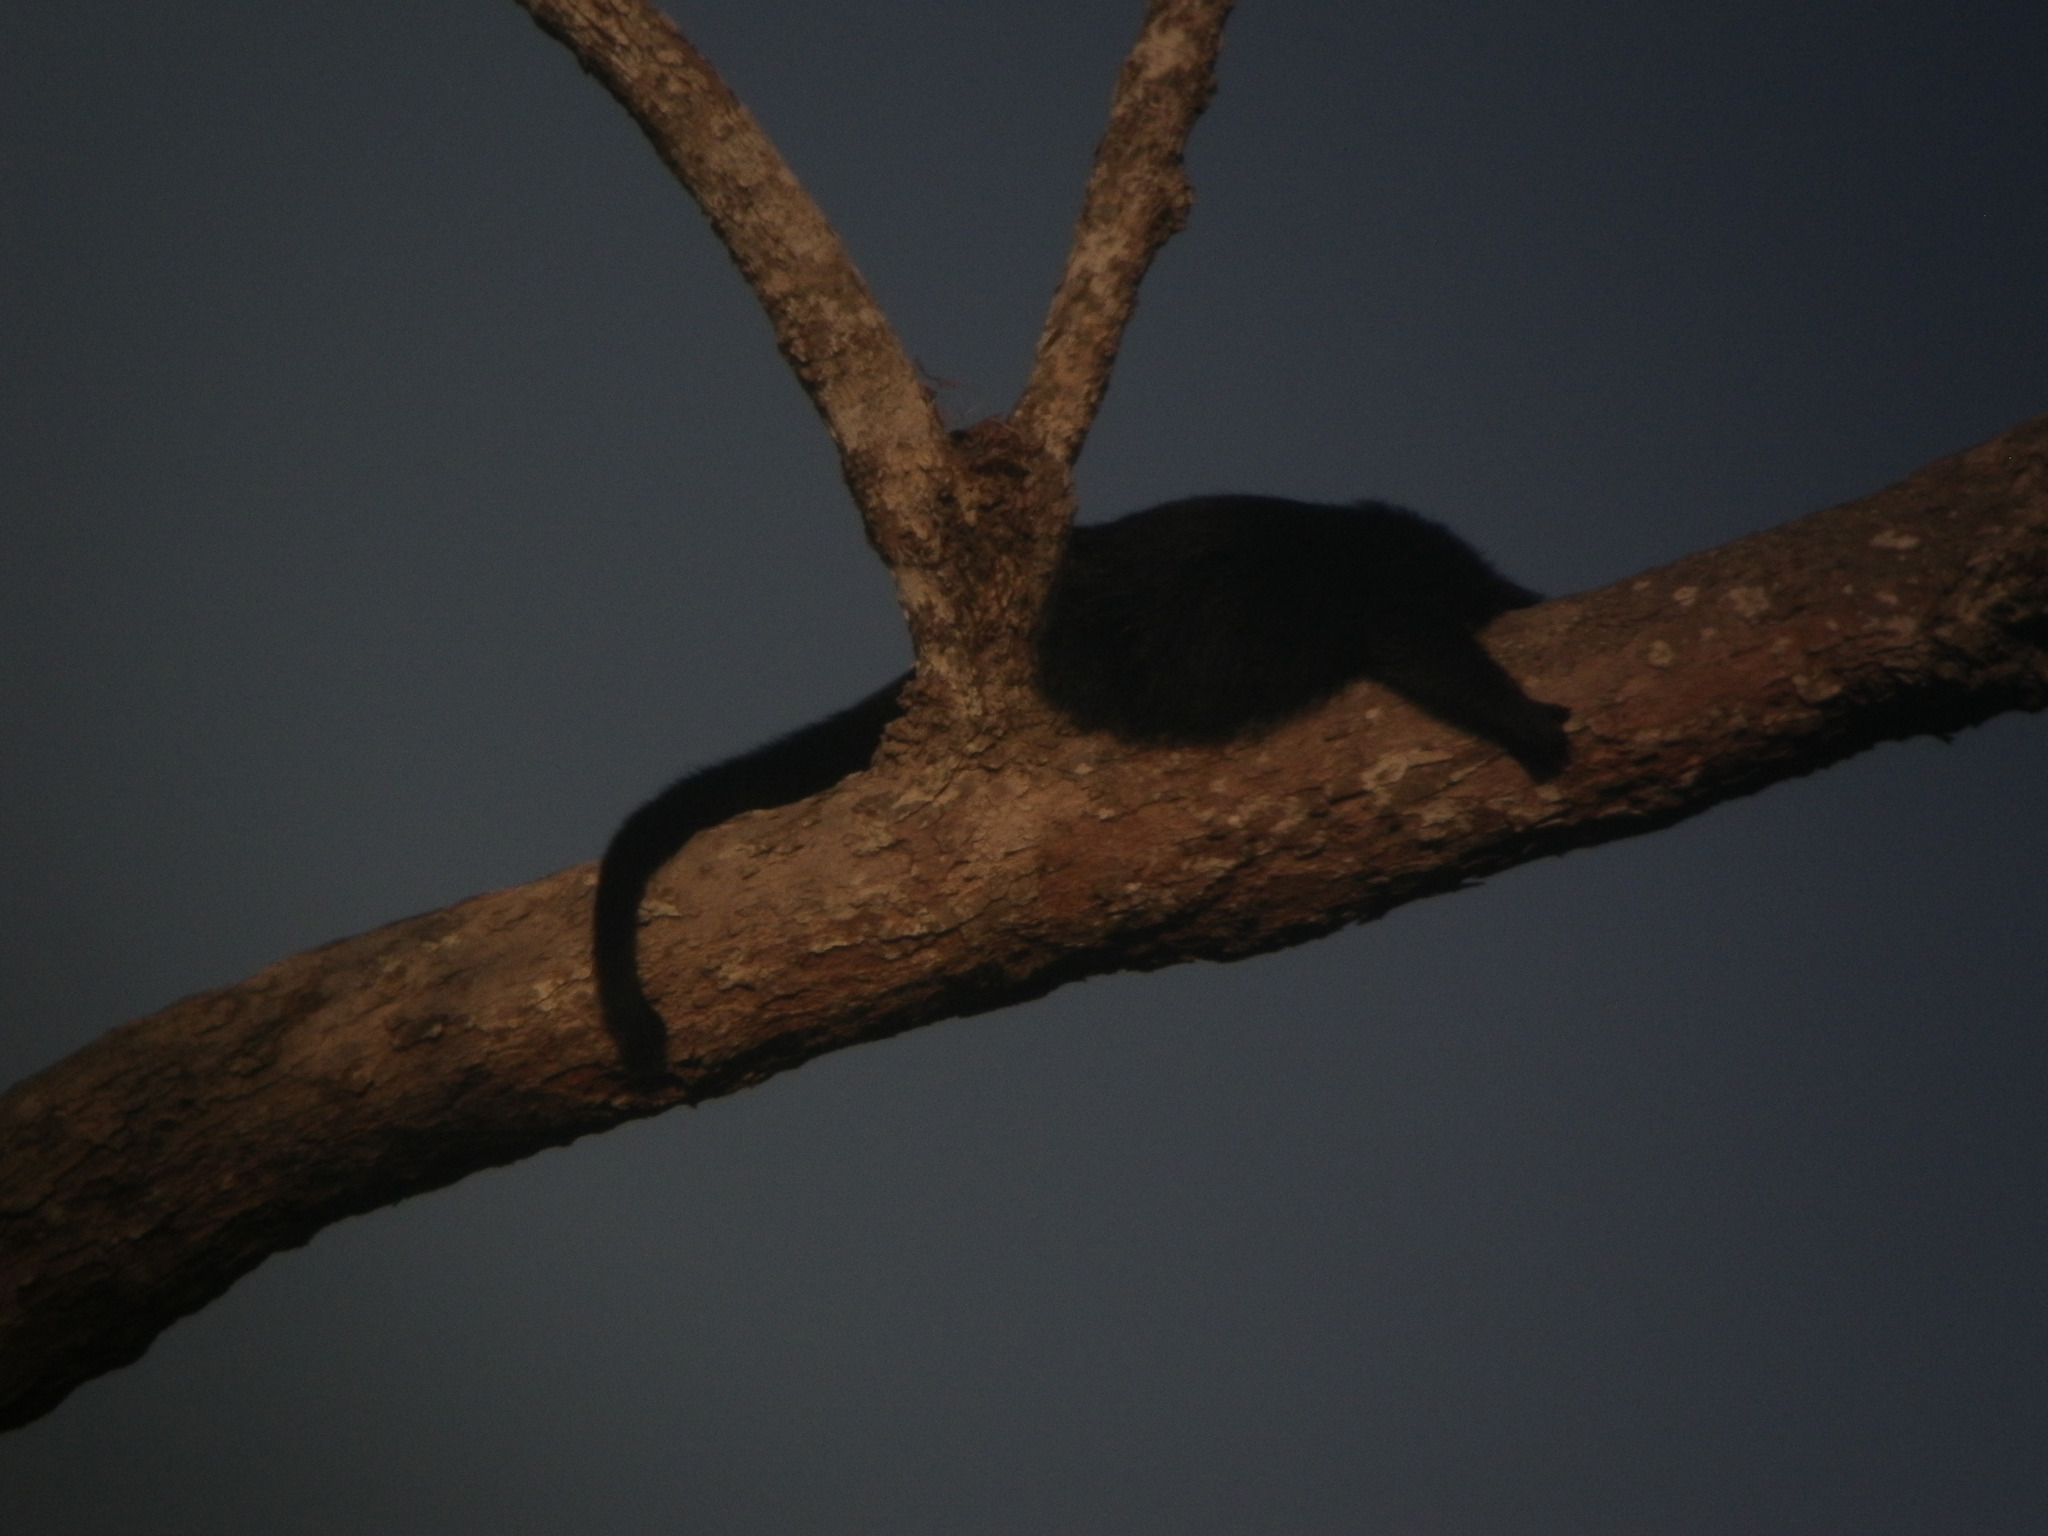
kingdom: Animalia
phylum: Chordata
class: Mammalia
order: Carnivora
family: Viverridae
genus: Arctictis
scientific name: Arctictis binturong
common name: Binturong
